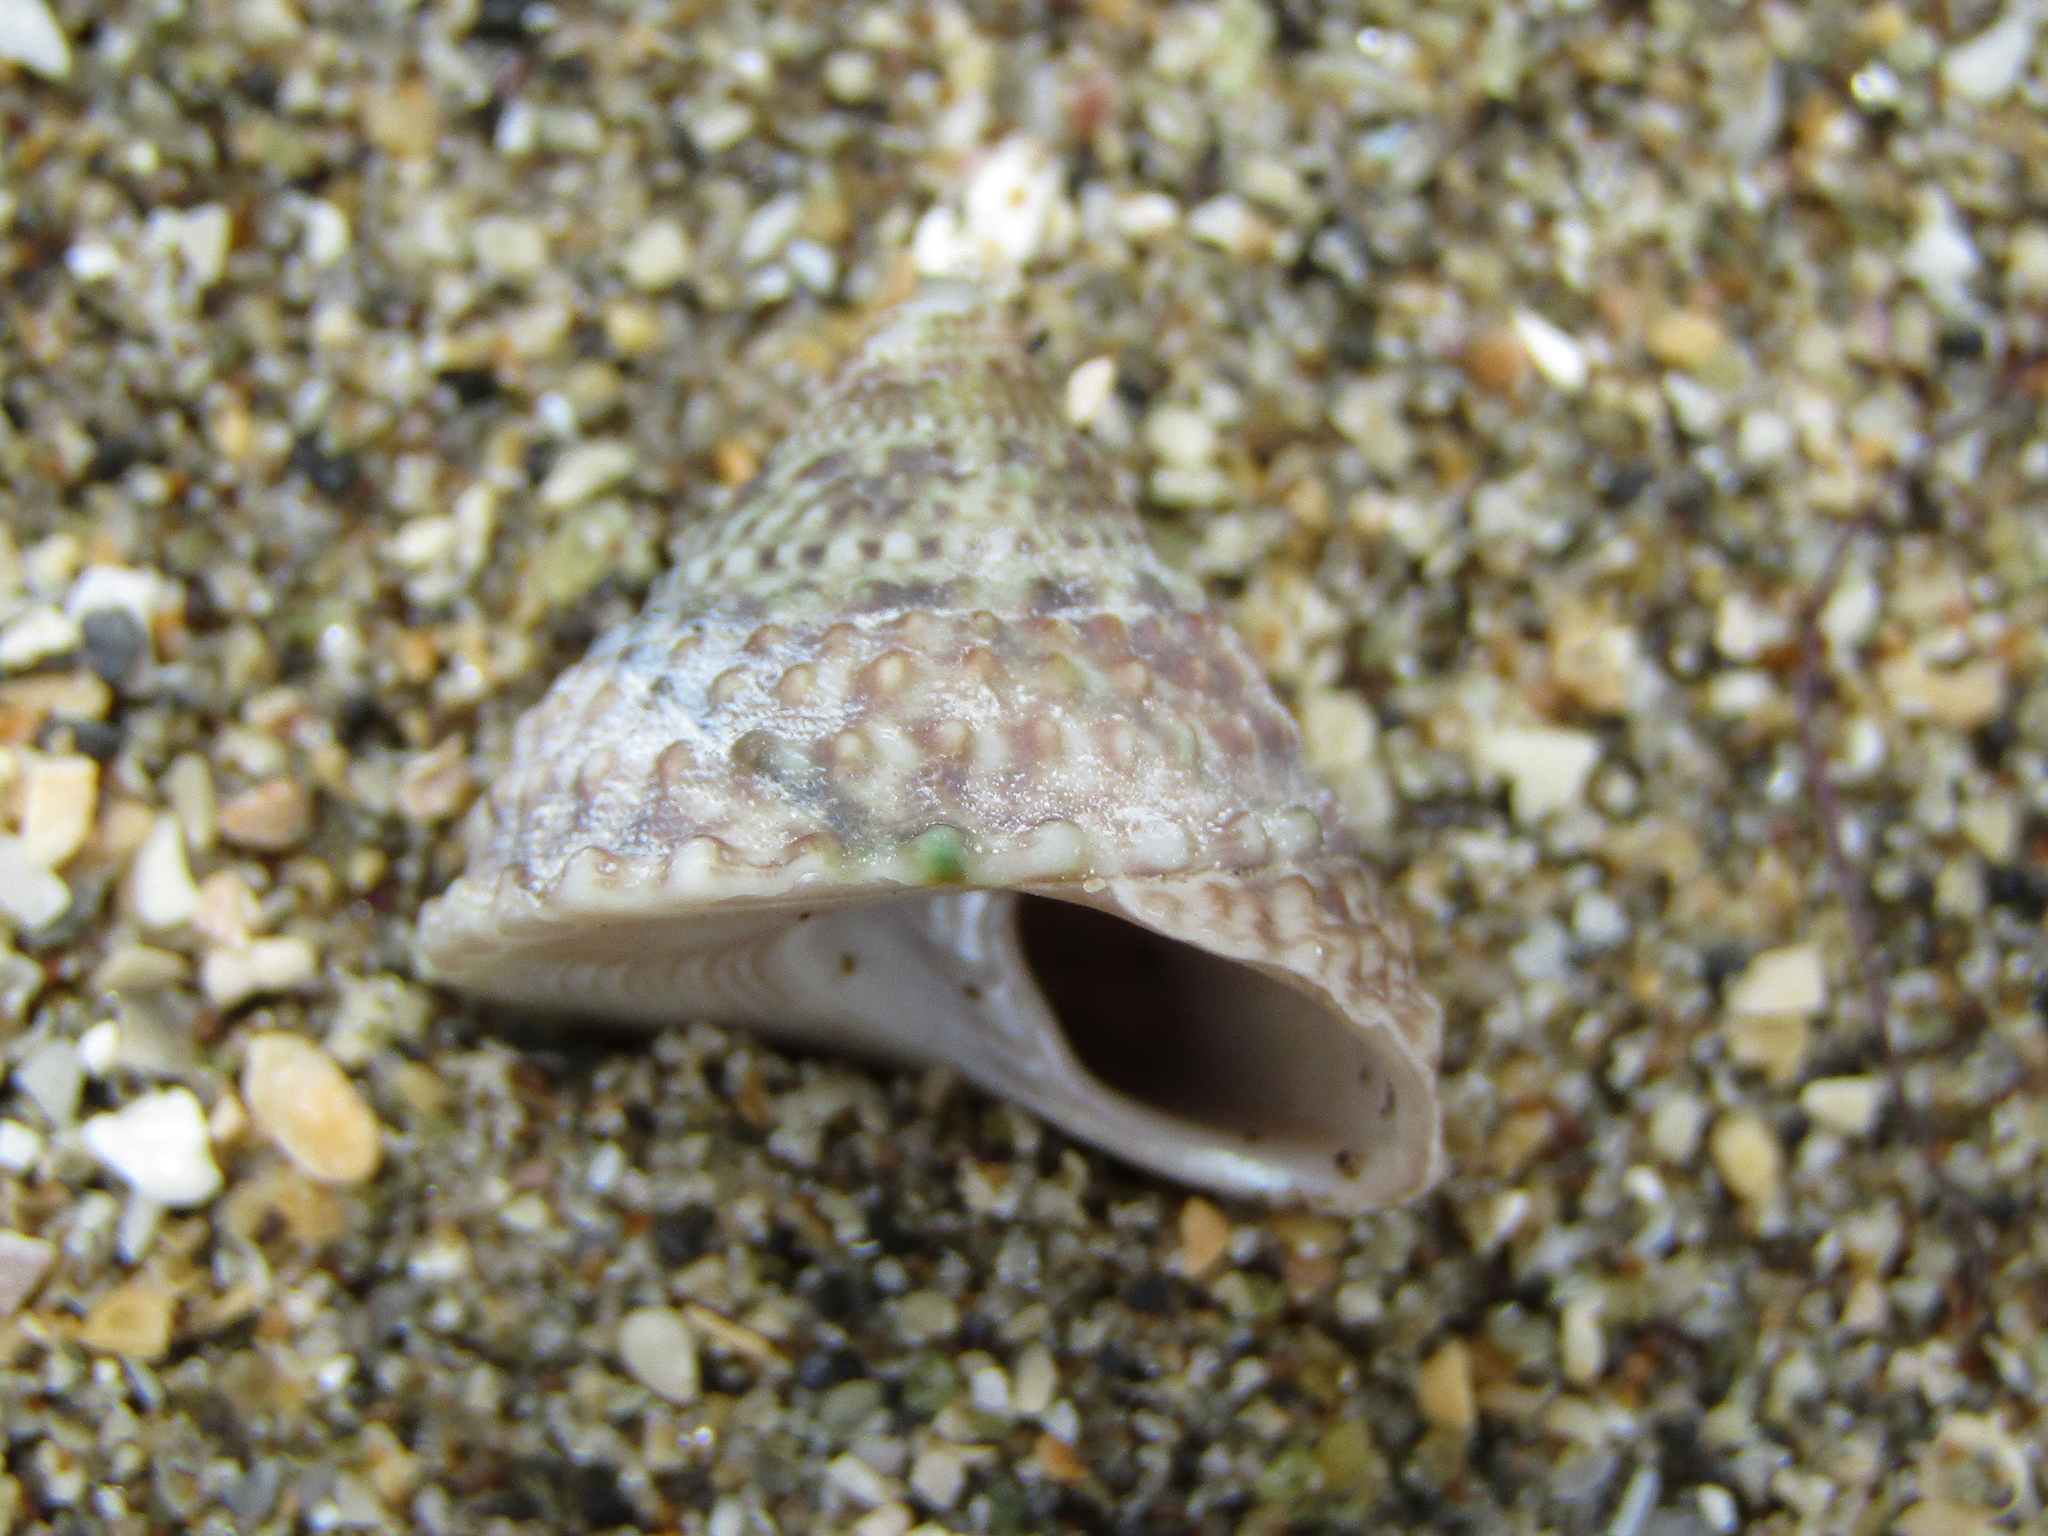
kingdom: Animalia
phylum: Mollusca
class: Gastropoda
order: Trochida
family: Trochidae
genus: Coelotrochus
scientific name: Coelotrochus viridis
